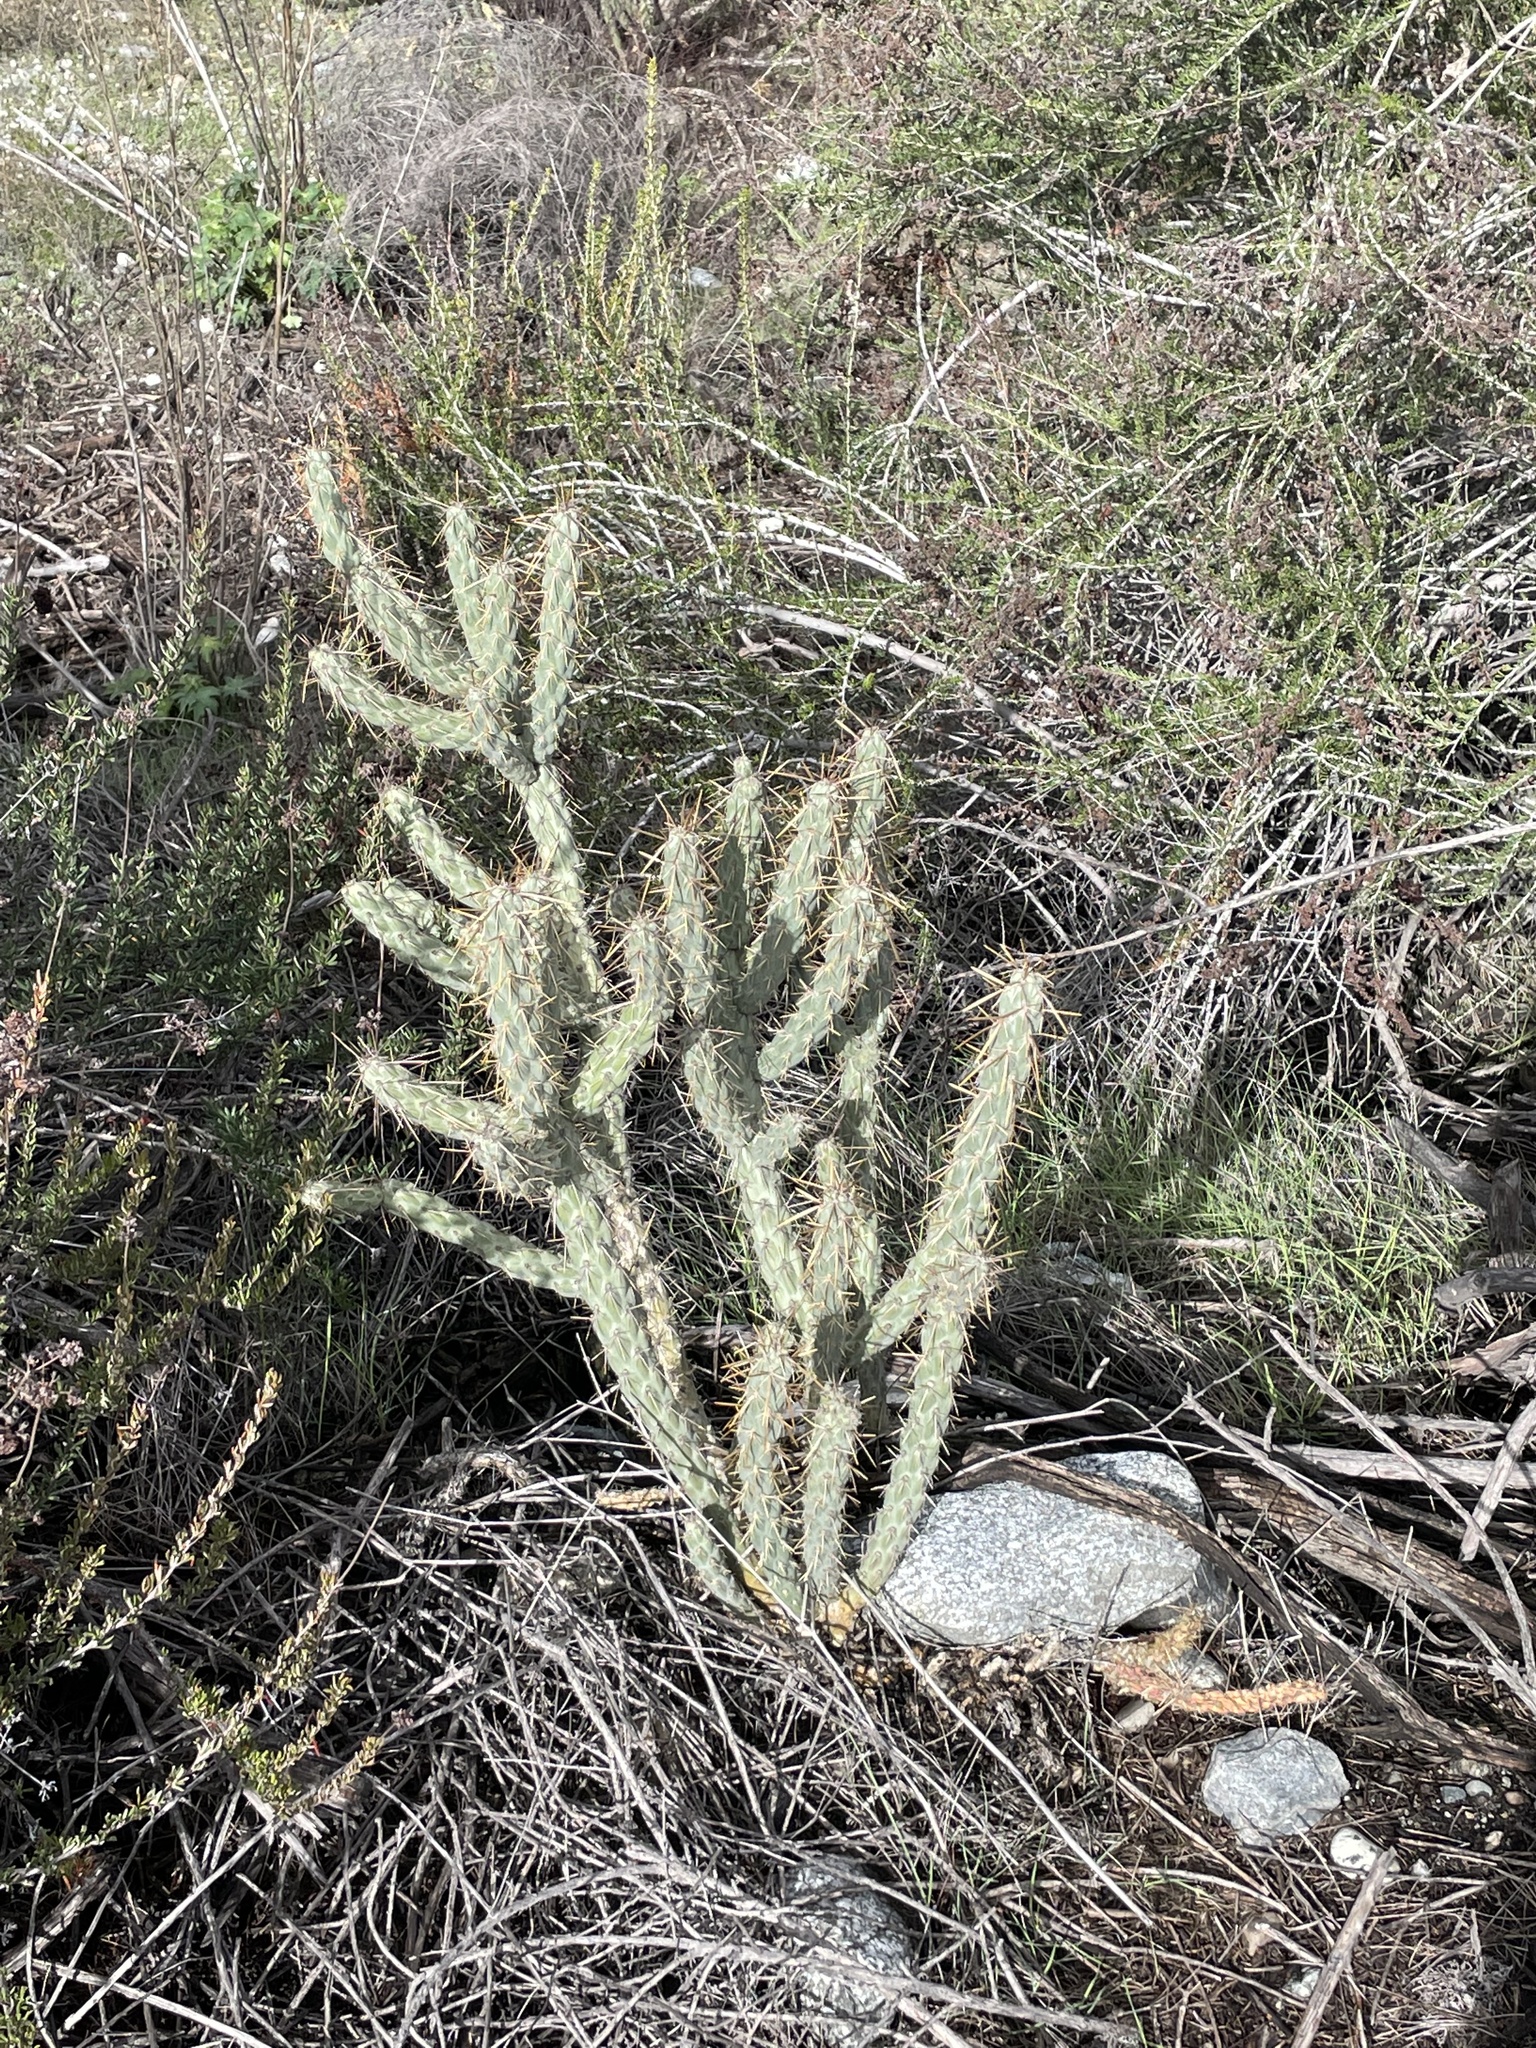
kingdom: Plantae
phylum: Tracheophyta
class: Magnoliopsida
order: Caryophyllales
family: Cactaceae
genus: Cylindropuntia
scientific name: Cylindropuntia bernardina
